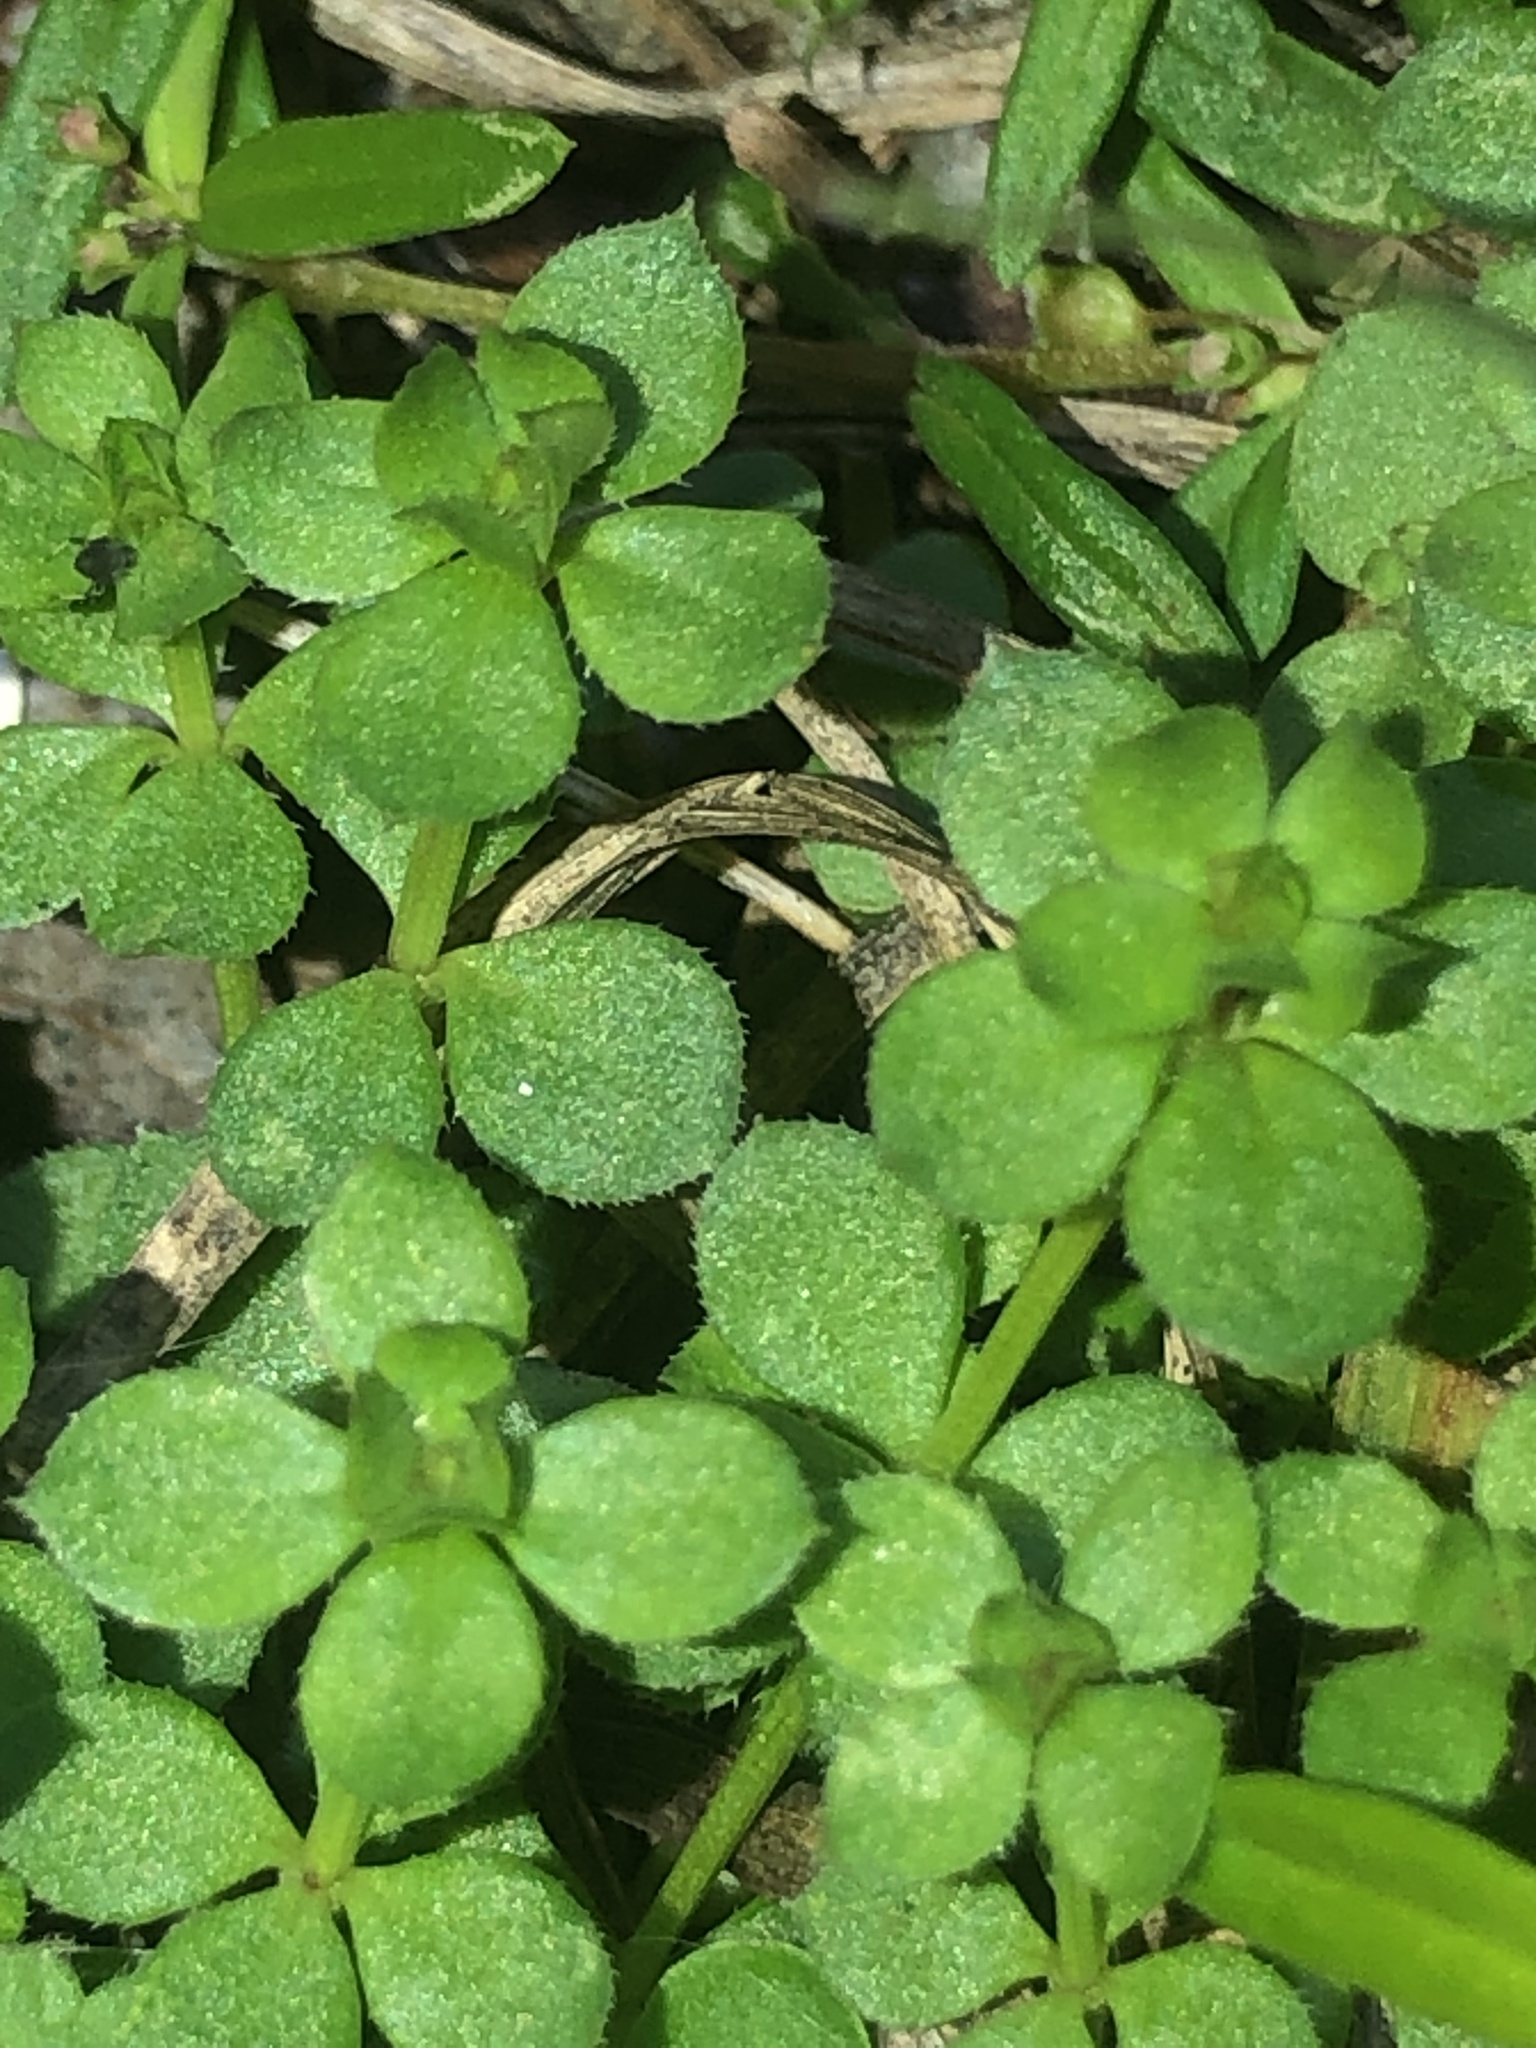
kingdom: Plantae
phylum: Tracheophyta
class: Magnoliopsida
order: Gentianales
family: Rubiaceae
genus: Sherardia
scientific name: Sherardia arvensis
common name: Field madder
